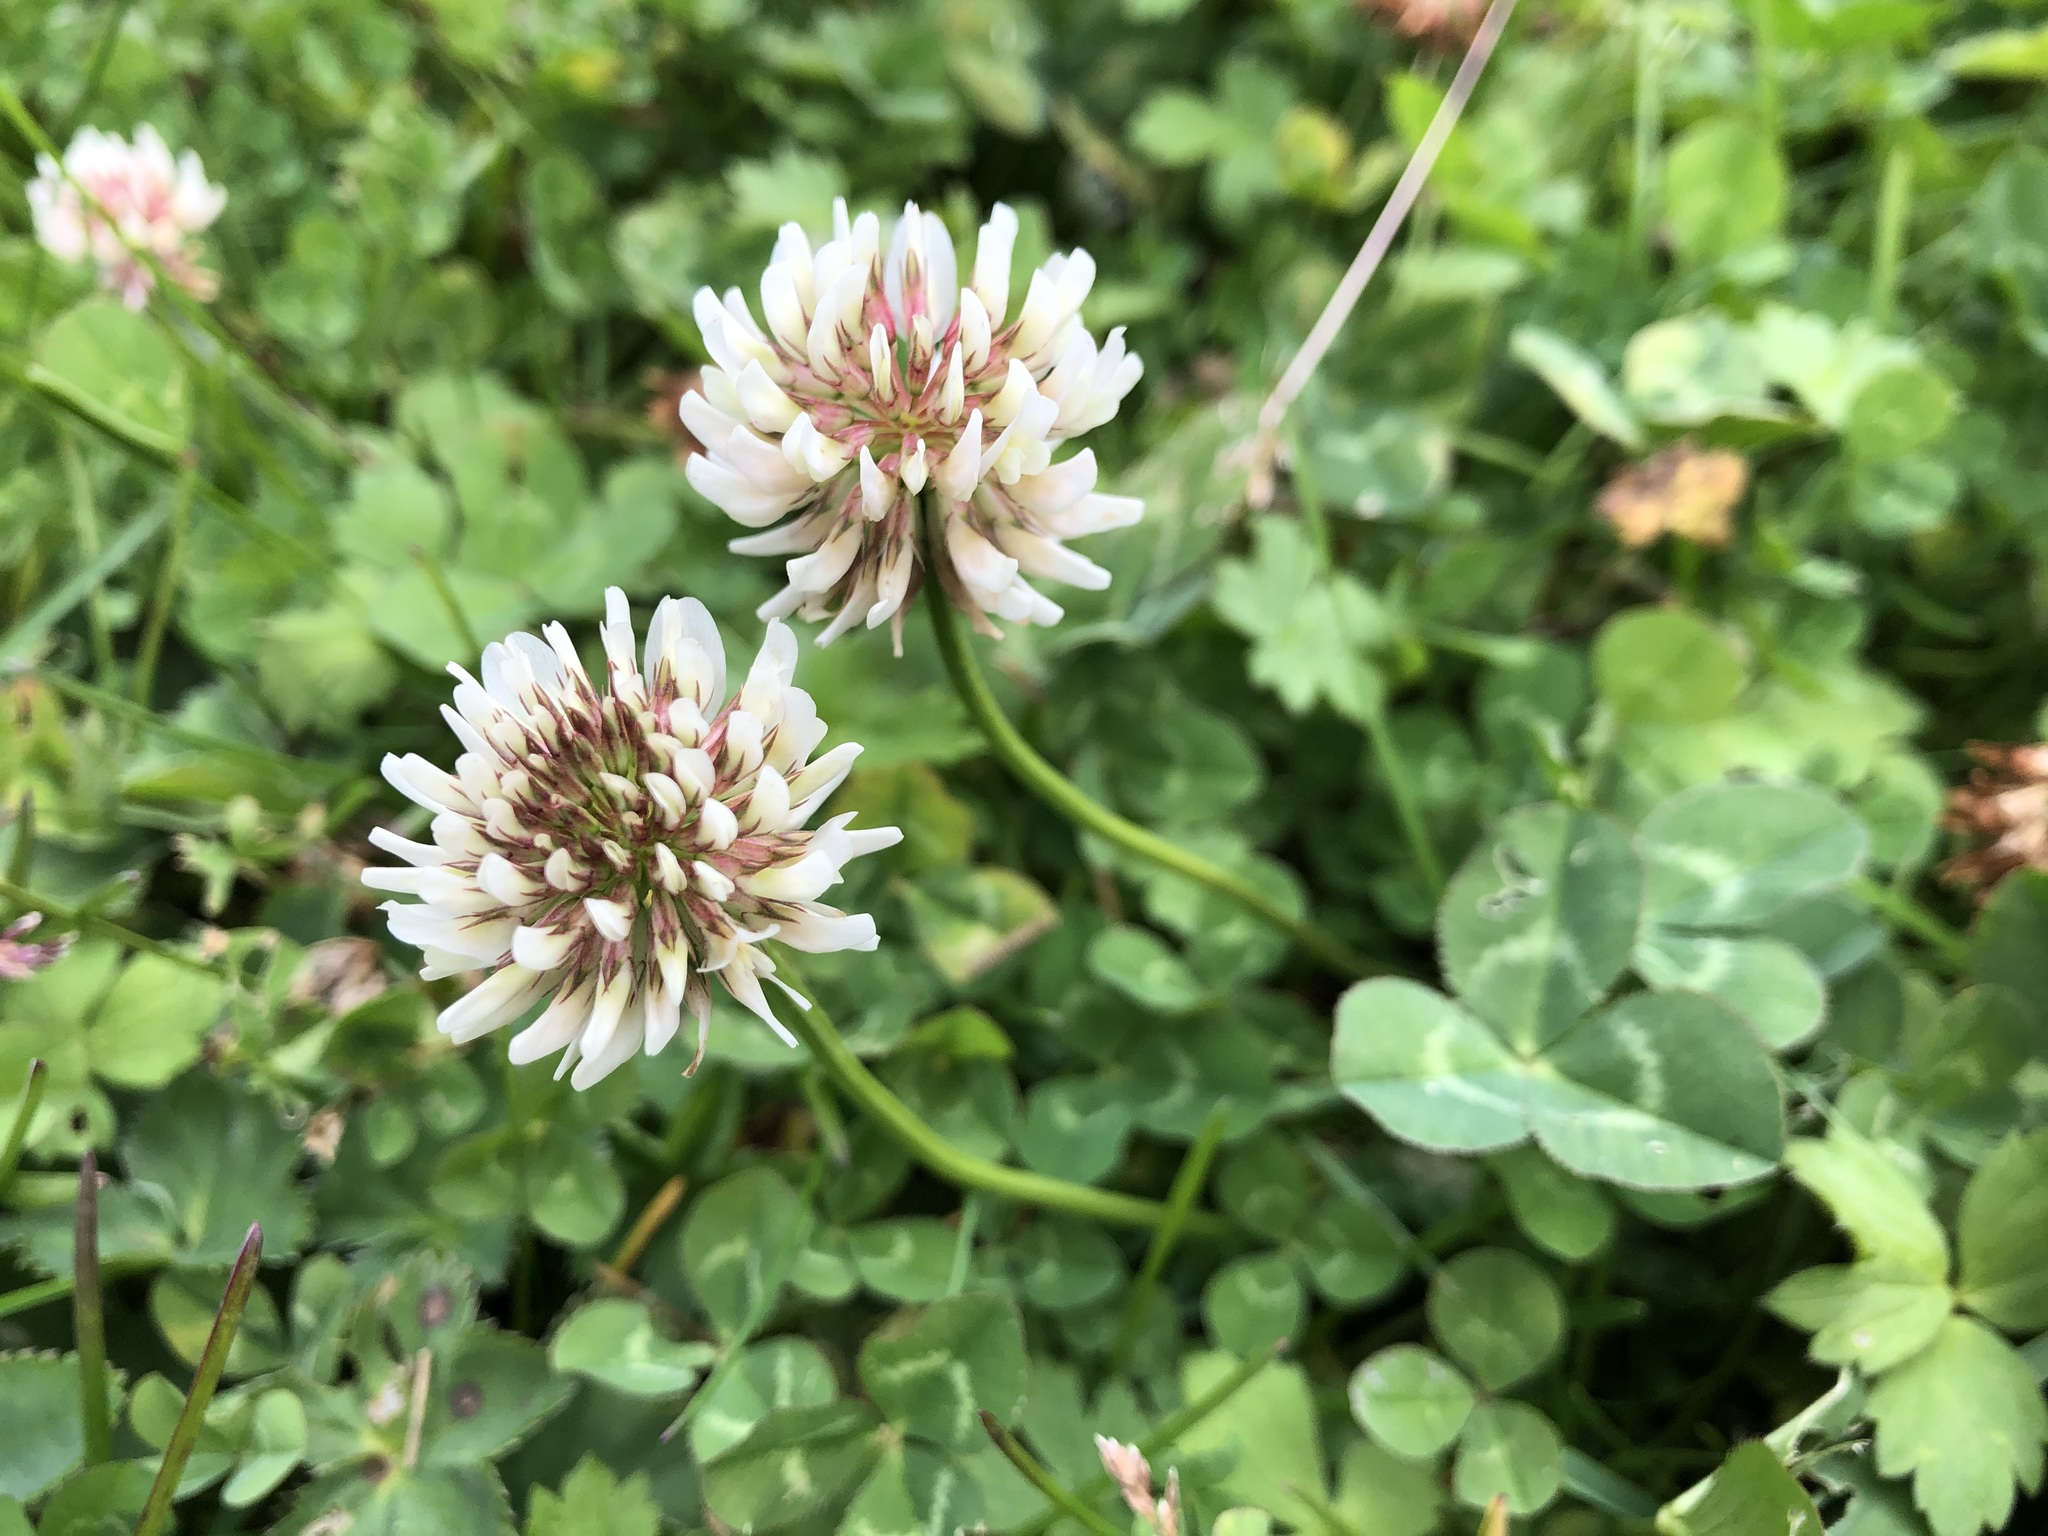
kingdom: Plantae
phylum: Tracheophyta
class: Magnoliopsida
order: Fabales
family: Fabaceae
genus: Trifolium
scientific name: Trifolium repens
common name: White clover
